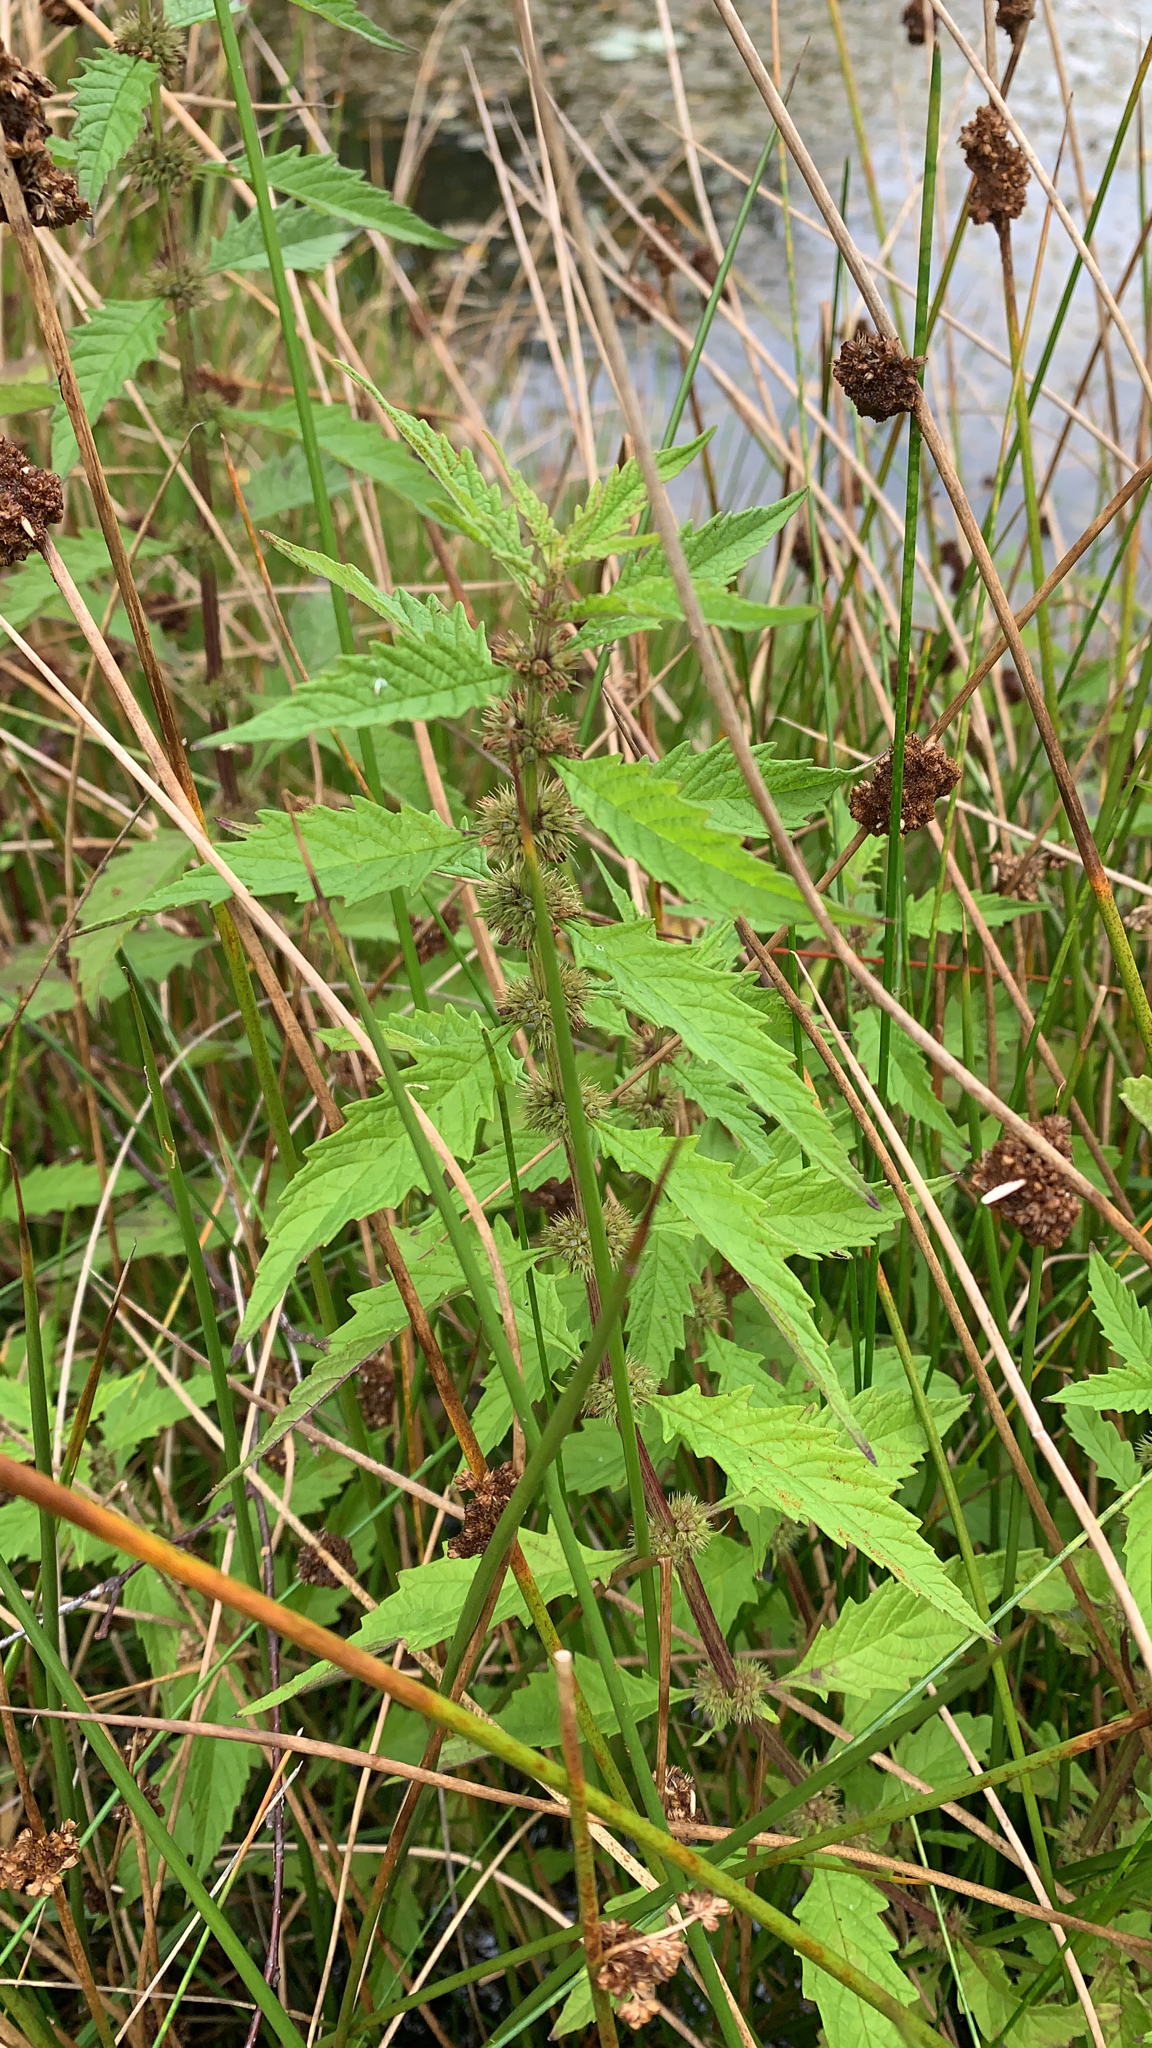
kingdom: Plantae
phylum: Tracheophyta
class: Magnoliopsida
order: Lamiales
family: Lamiaceae
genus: Lycopus
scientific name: Lycopus europaeus
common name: European bugleweed
